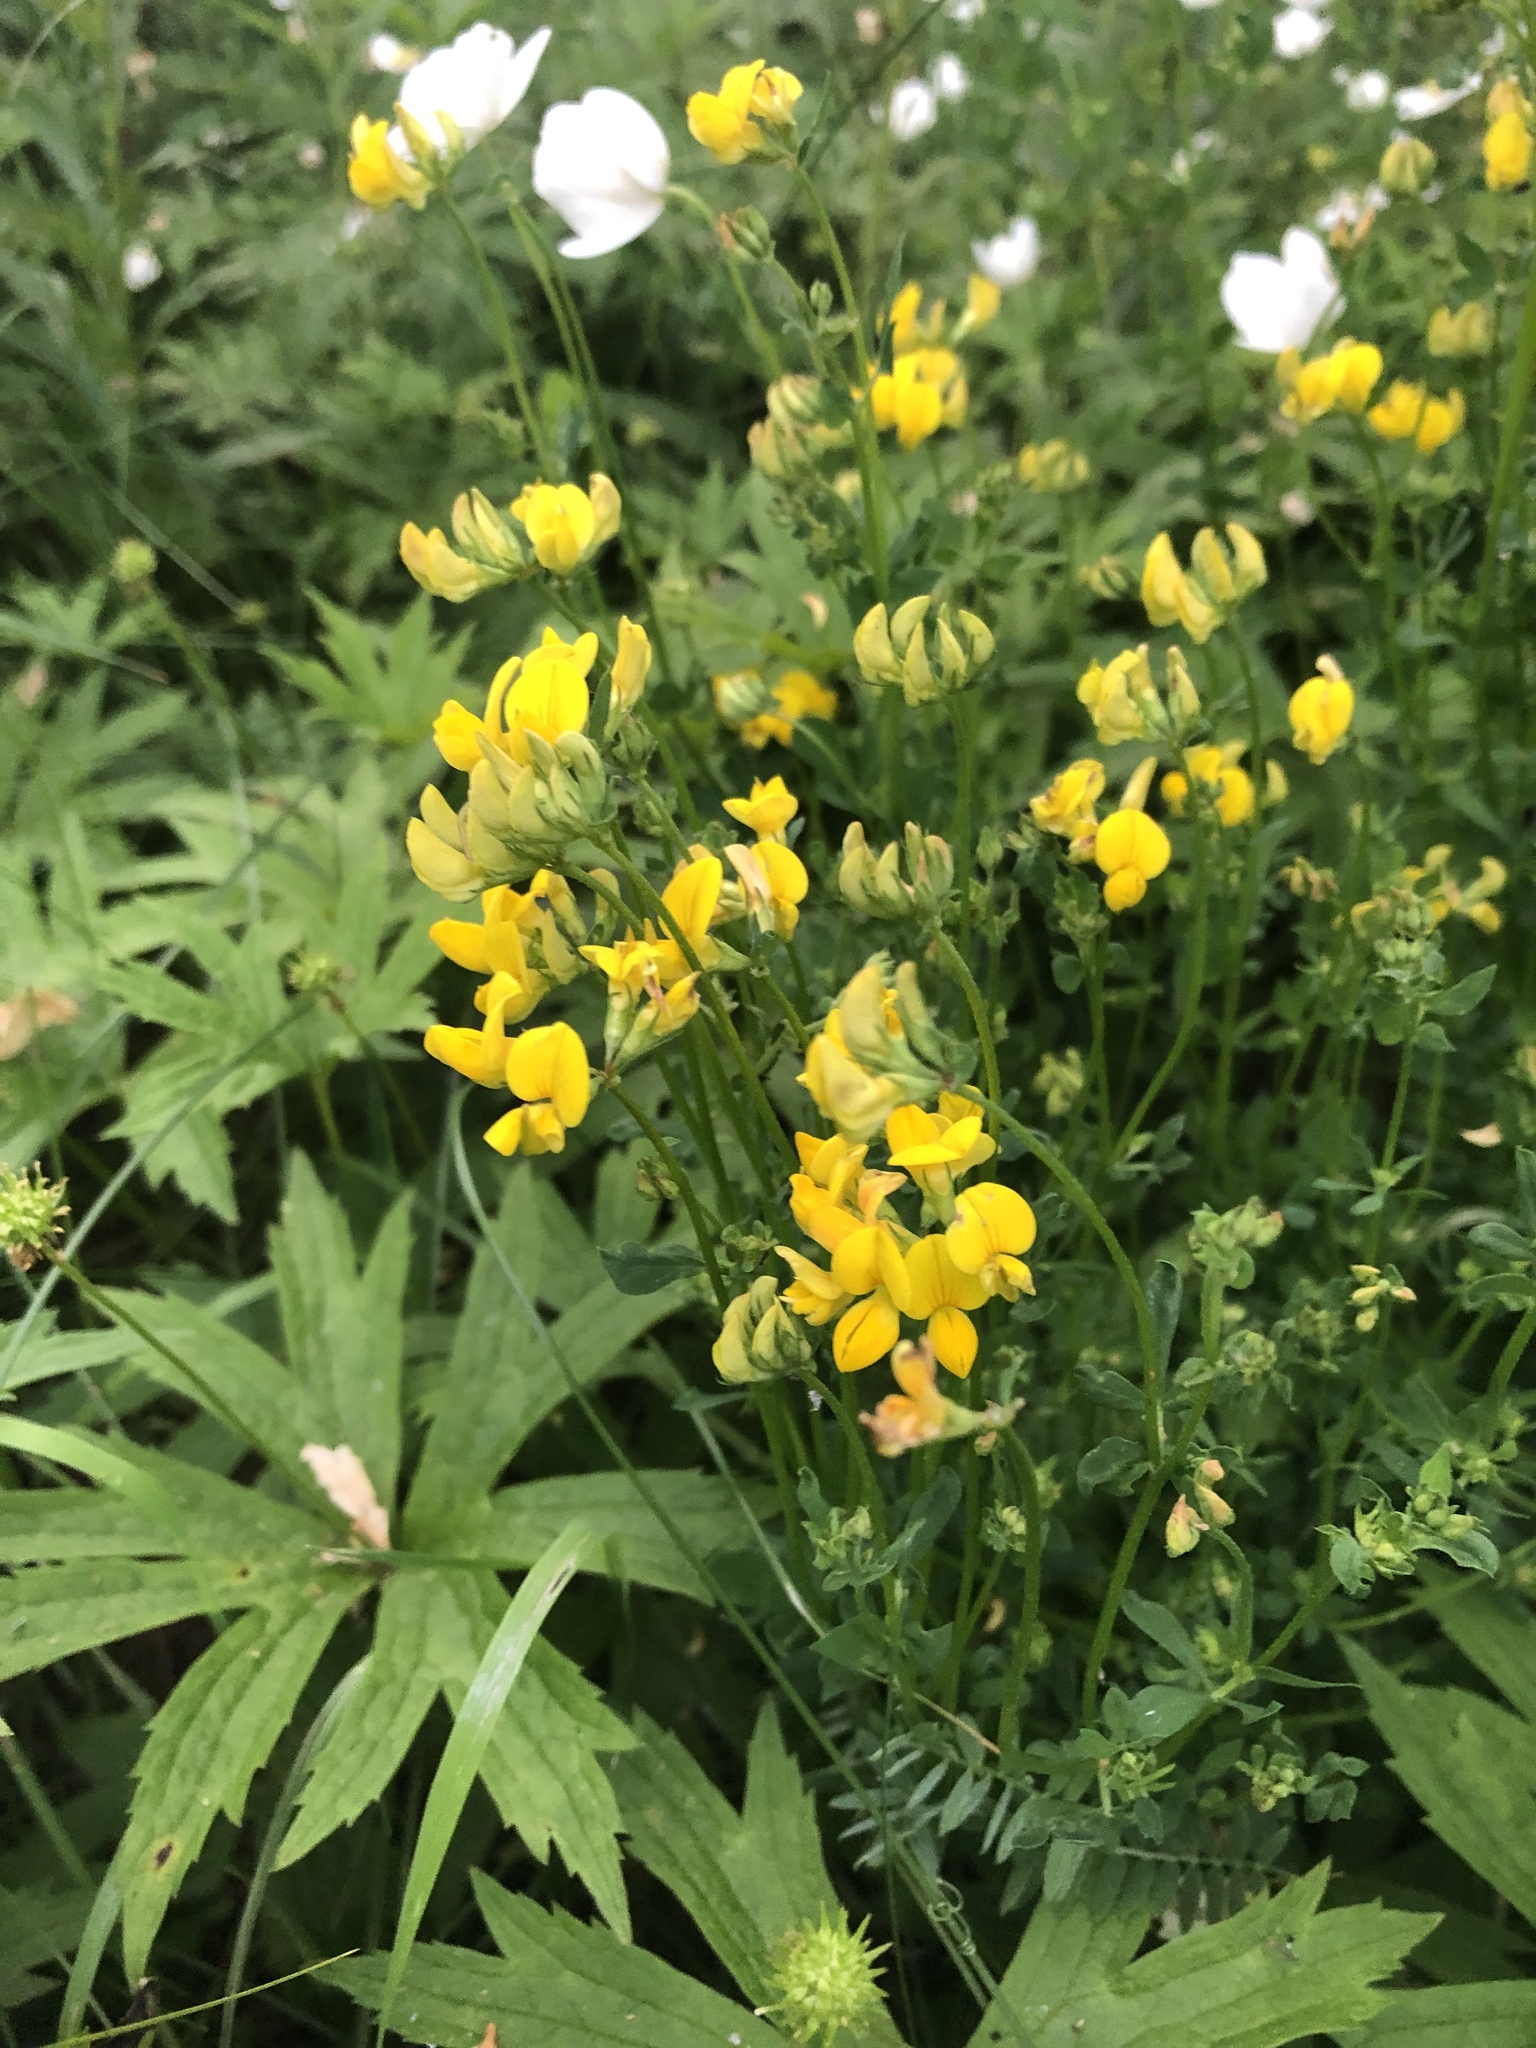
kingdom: Plantae
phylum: Tracheophyta
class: Magnoliopsida
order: Fabales
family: Fabaceae
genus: Lotus
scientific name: Lotus corniculatus
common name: Common bird's-foot-trefoil
